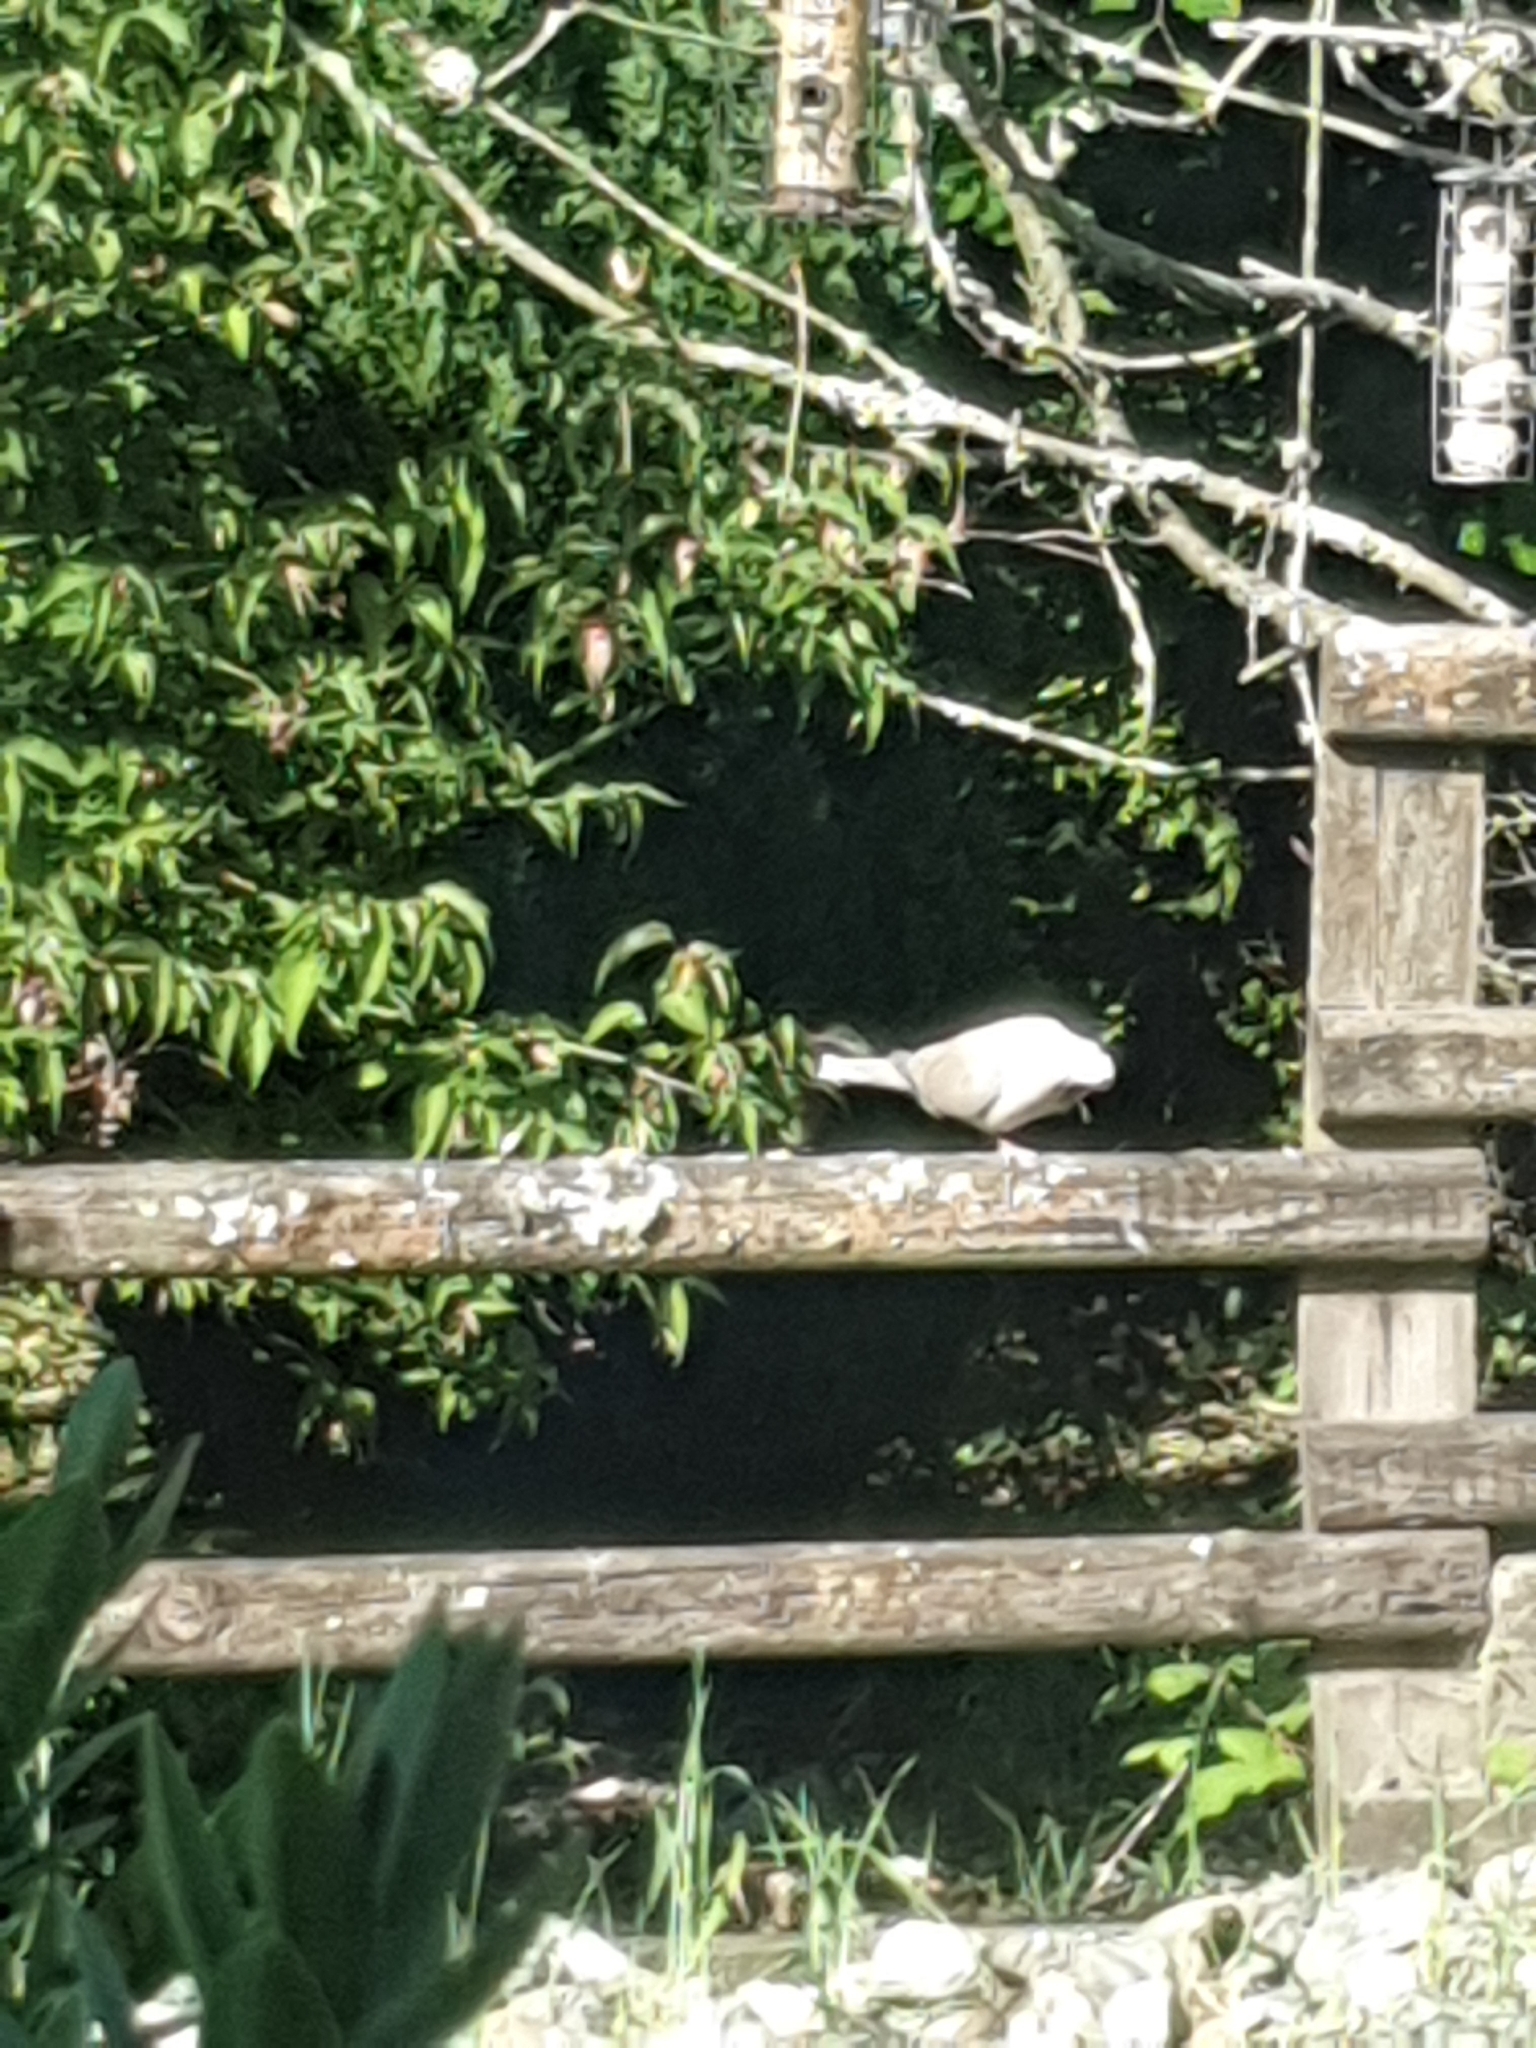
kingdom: Animalia
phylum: Chordata
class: Aves
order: Columbiformes
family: Columbidae
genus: Streptopelia
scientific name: Streptopelia decaocto
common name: Eurasian collared dove
